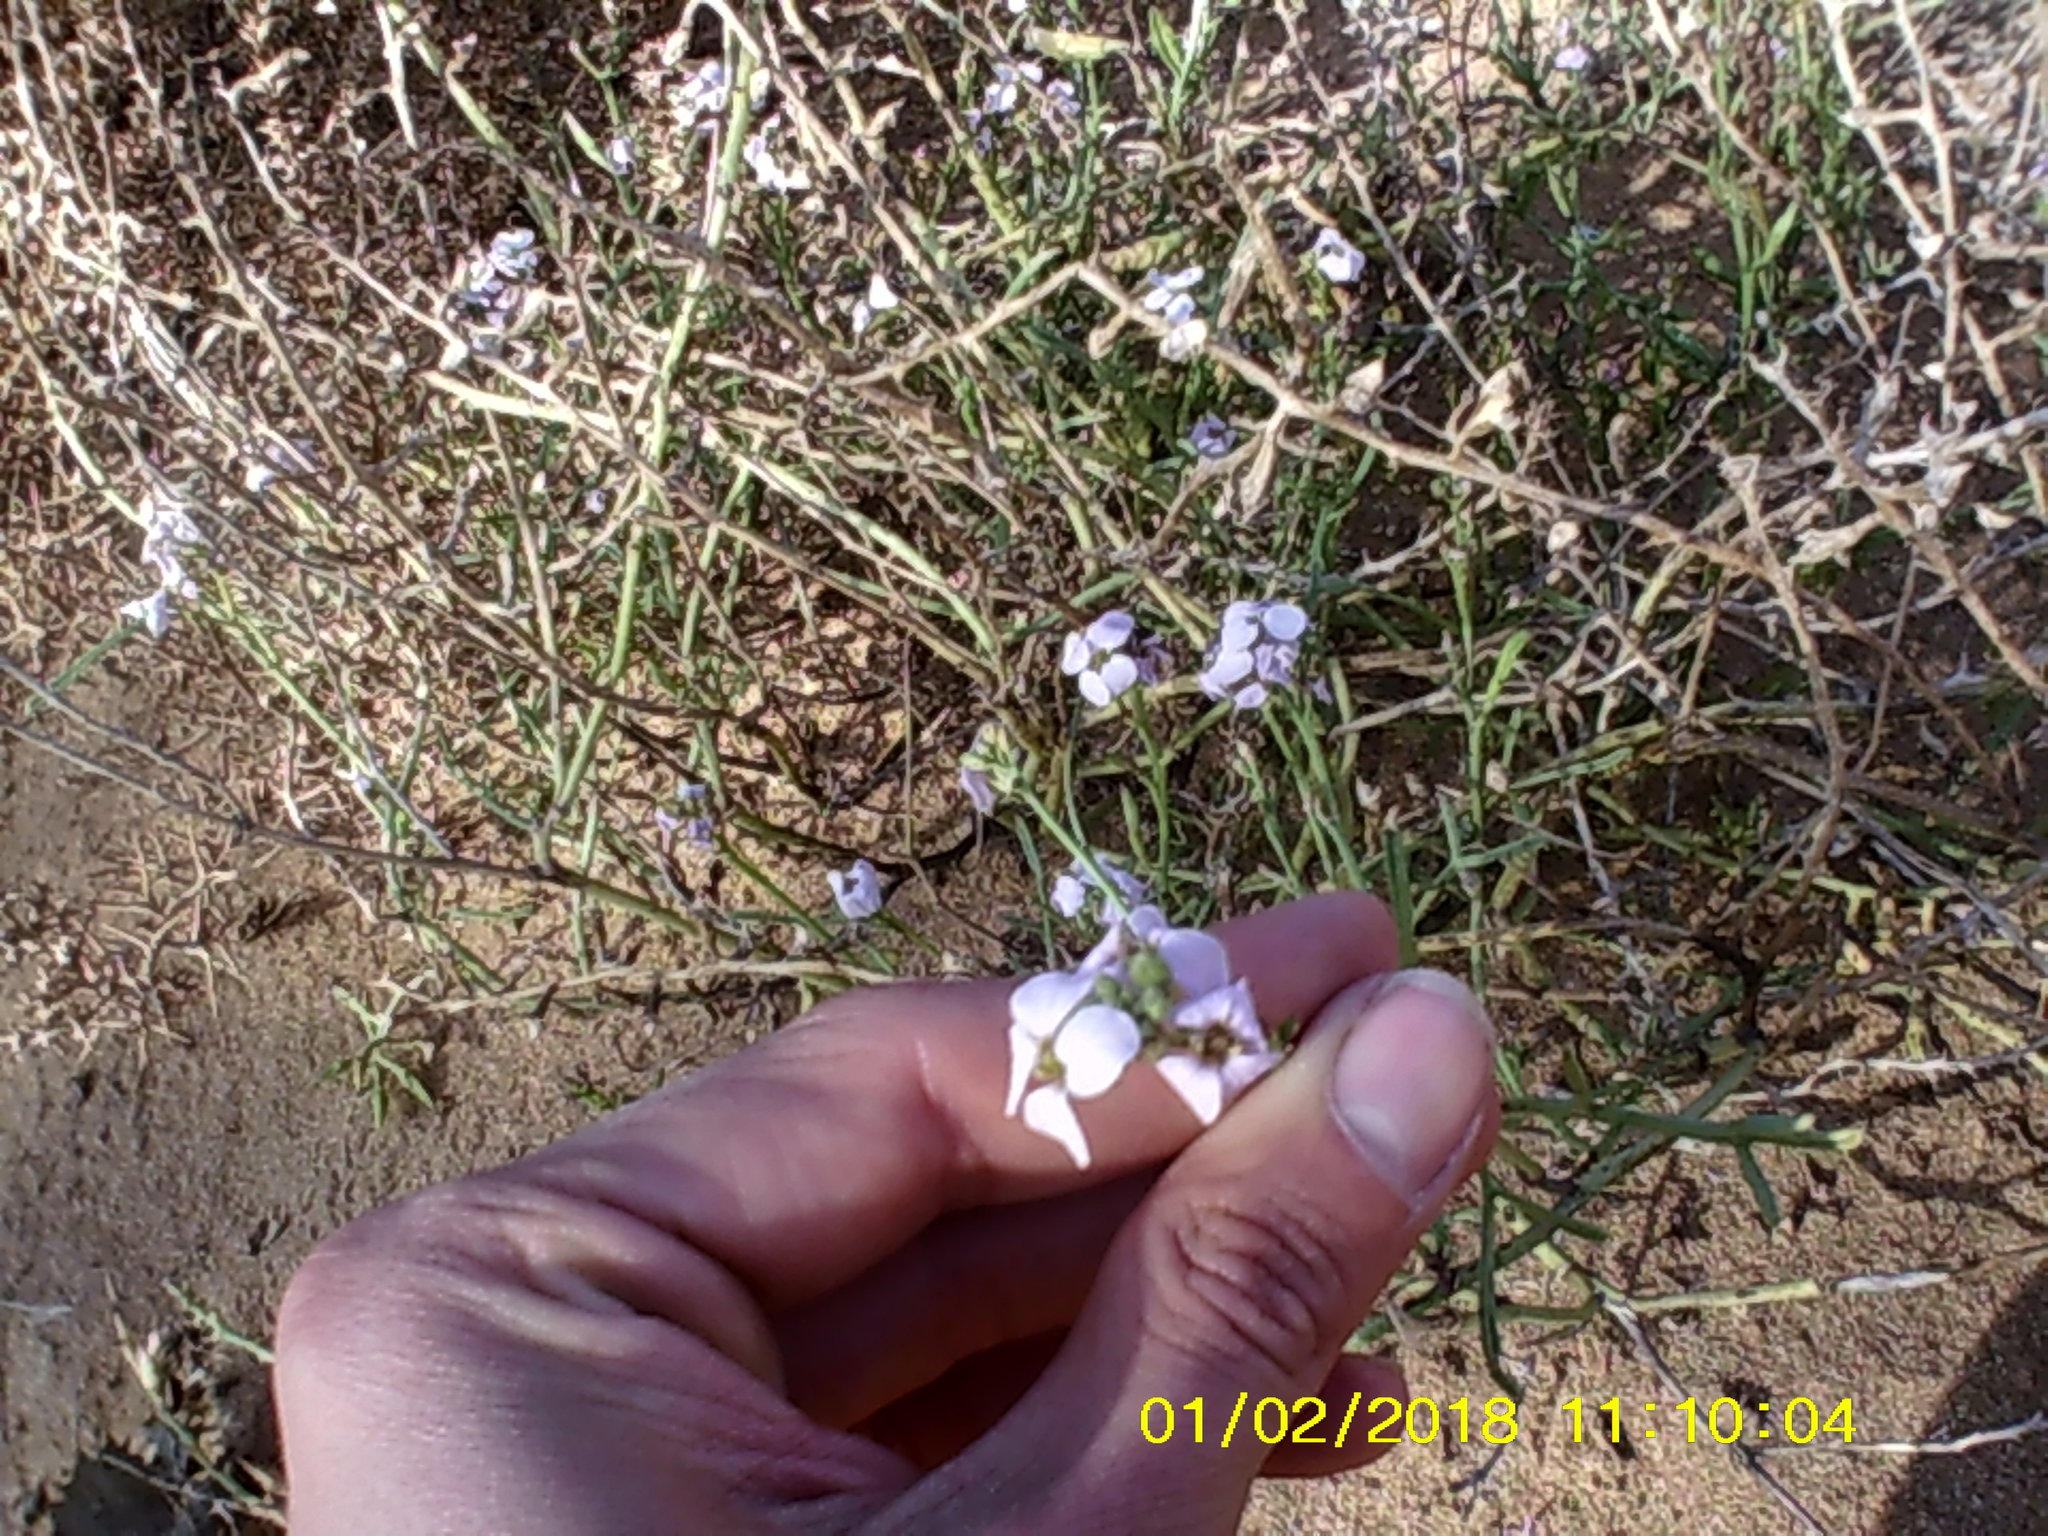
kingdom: Plantae
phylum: Tracheophyta
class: Magnoliopsida
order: Brassicales
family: Brassicaceae
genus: Cakile
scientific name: Cakile maritima
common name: Sea rocket
